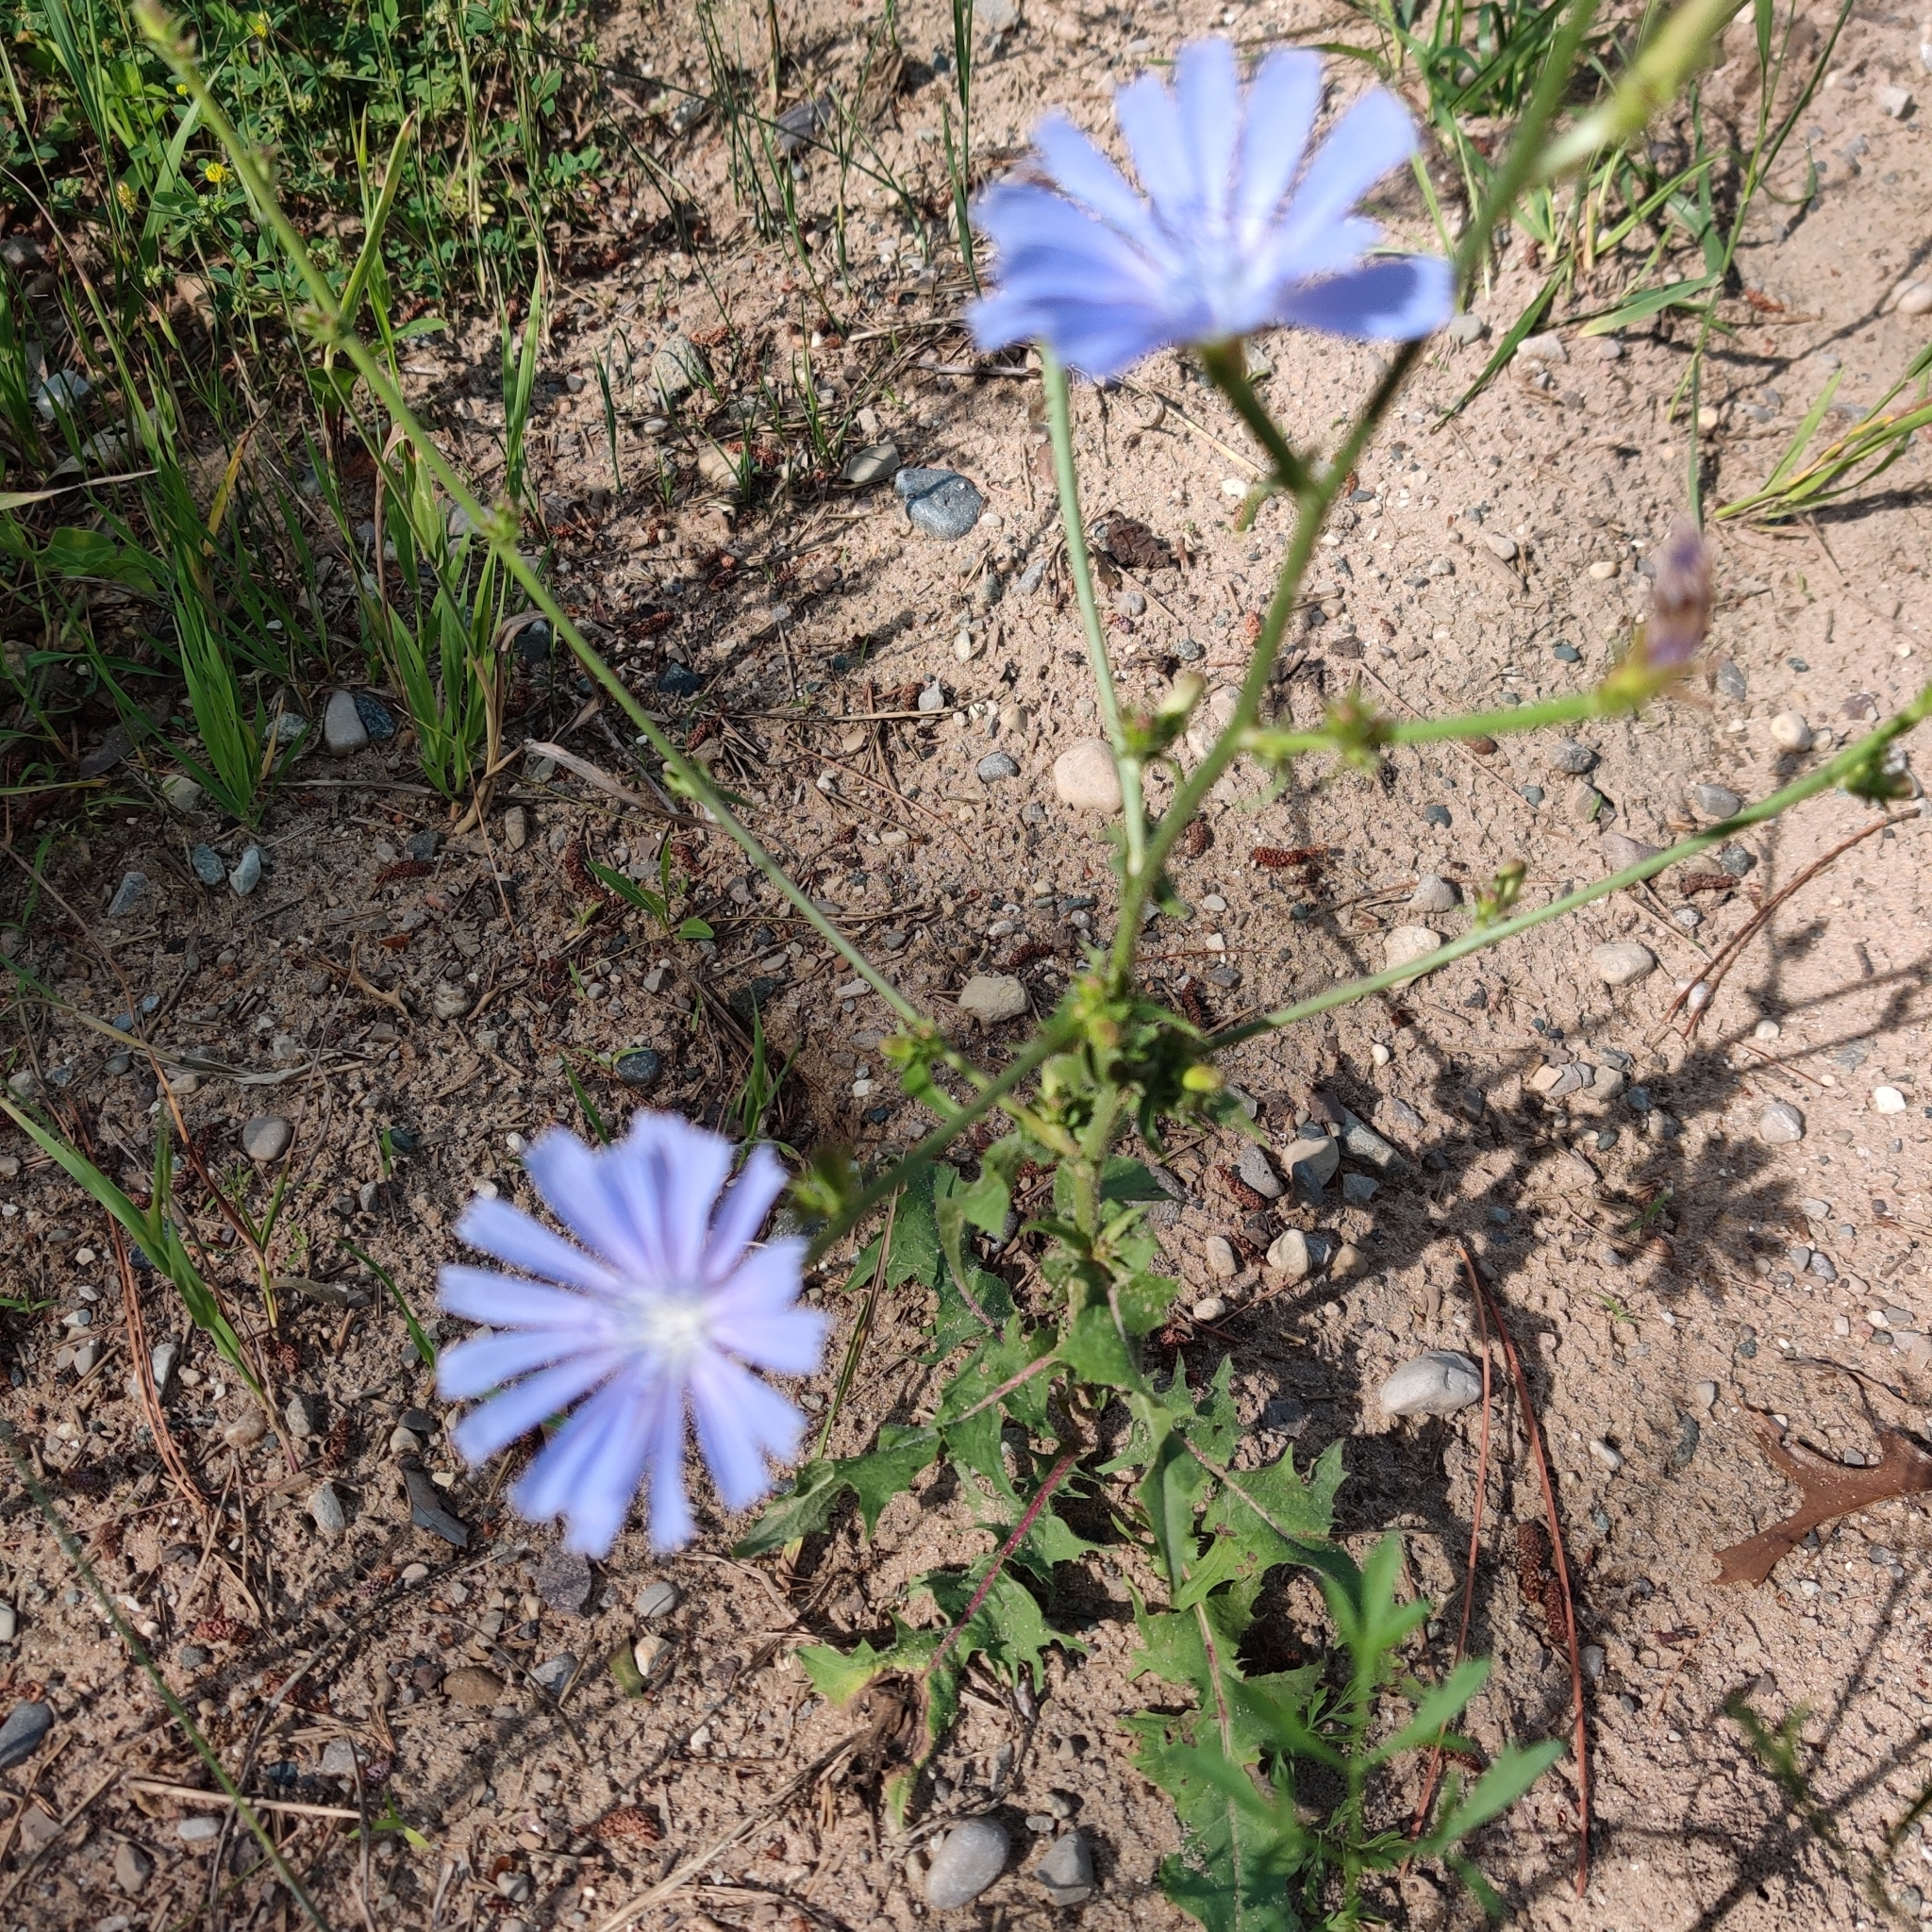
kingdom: Plantae
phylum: Tracheophyta
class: Magnoliopsida
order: Asterales
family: Asteraceae
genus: Cichorium
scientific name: Cichorium intybus
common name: Chicory
